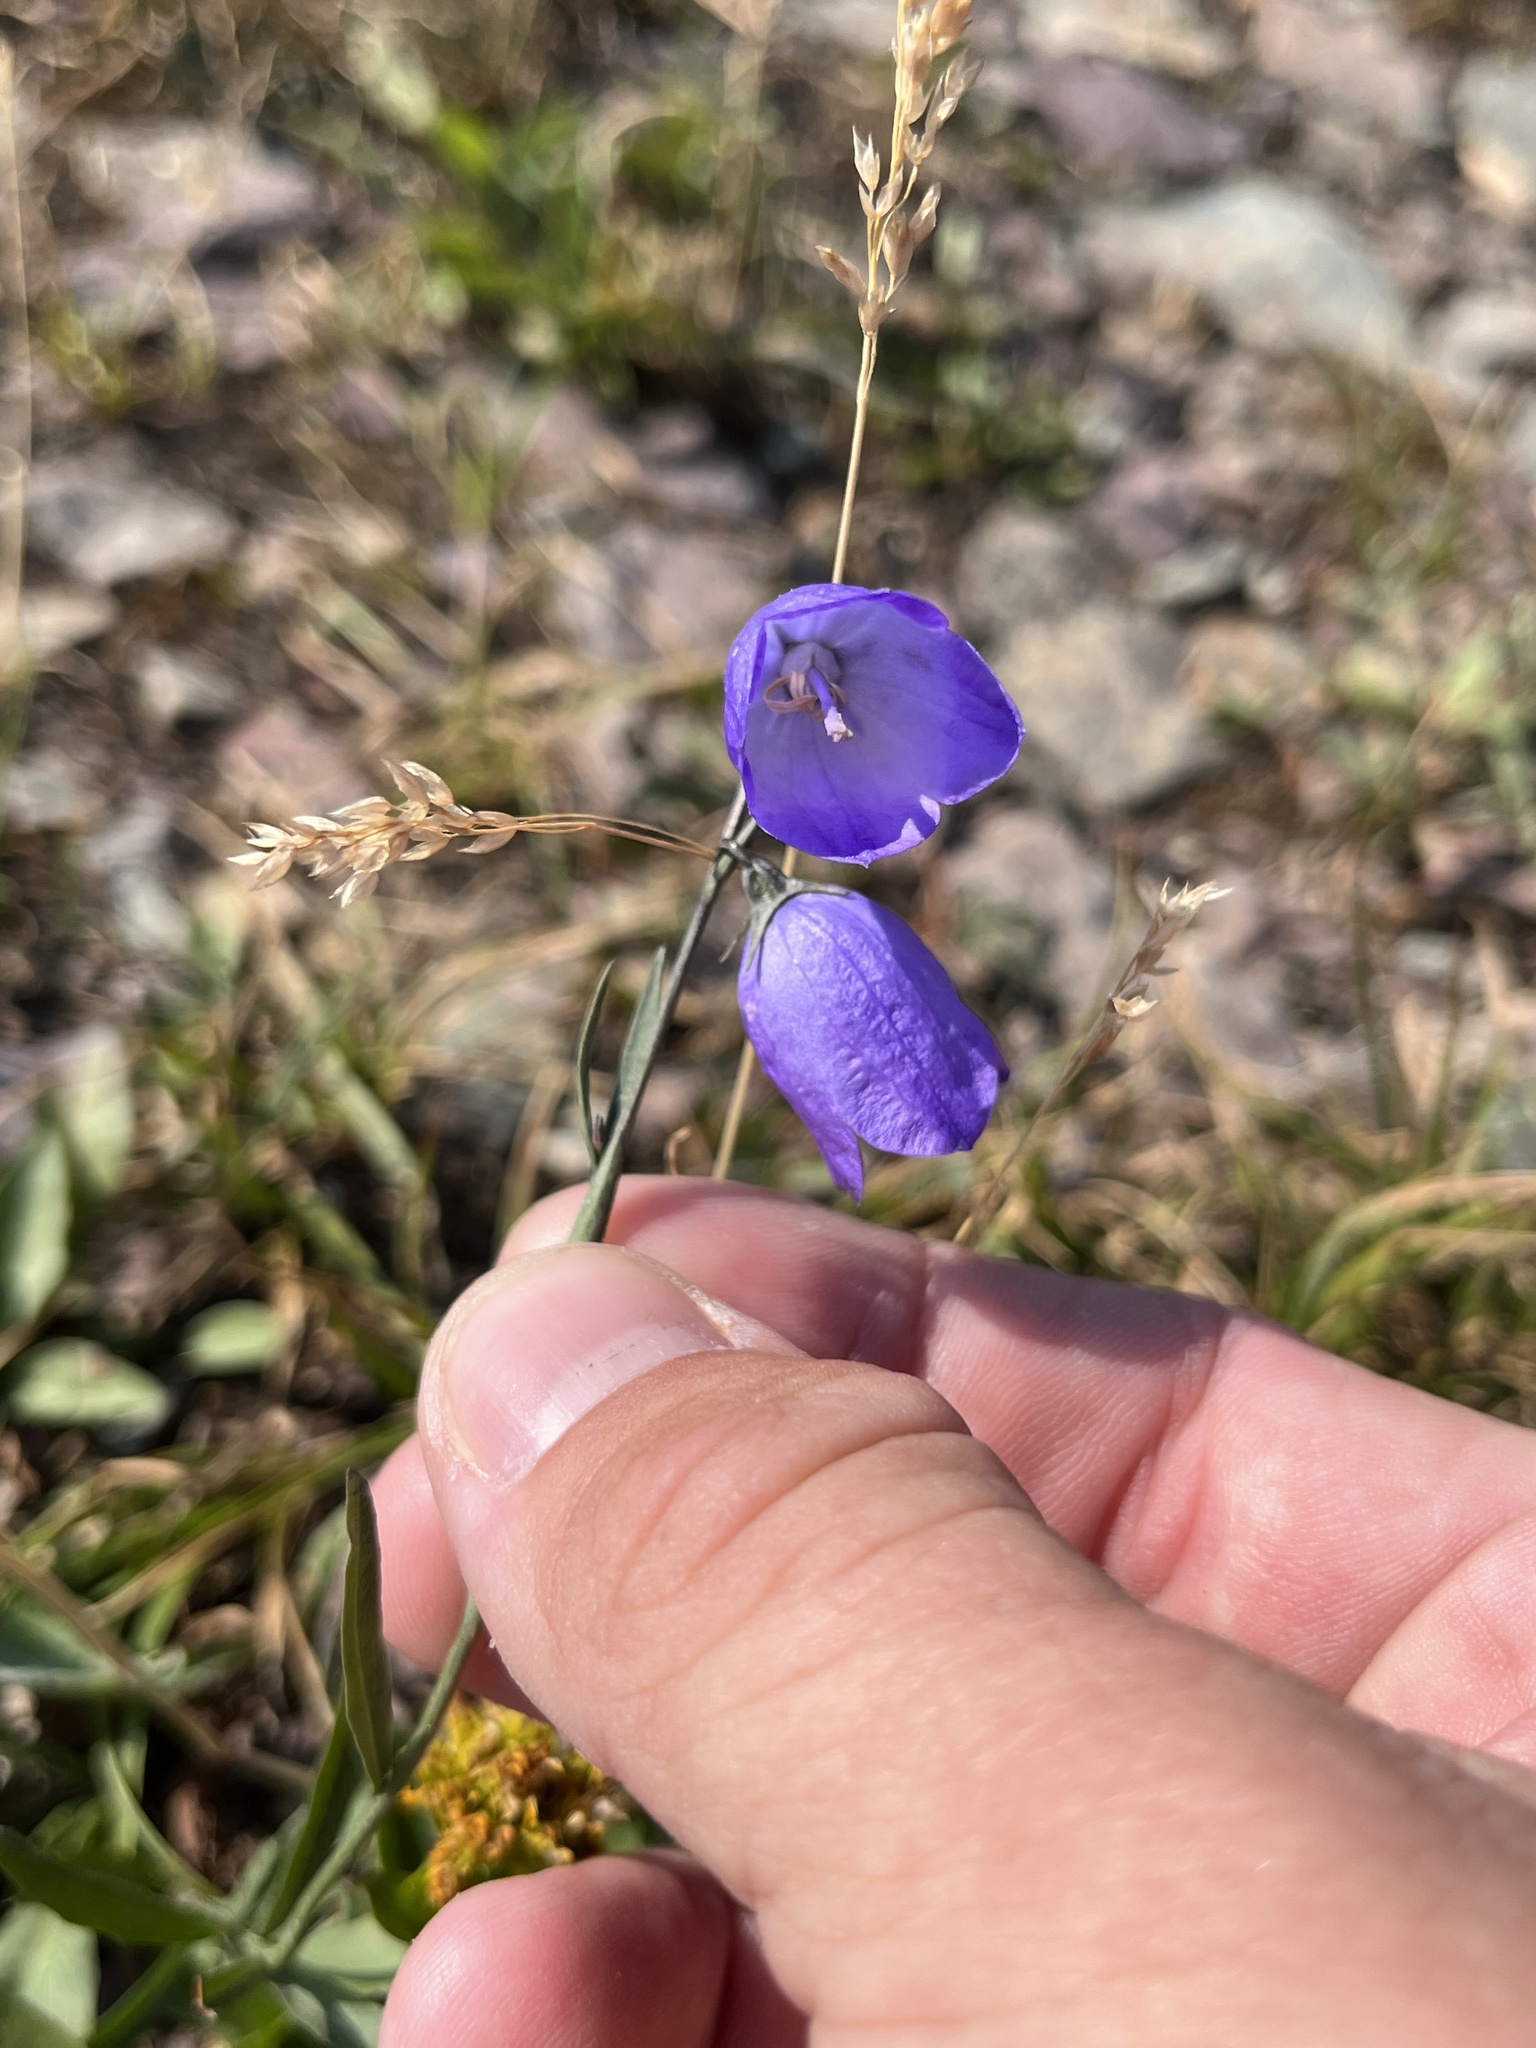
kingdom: Plantae
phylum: Tracheophyta
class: Magnoliopsida
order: Asterales
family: Campanulaceae
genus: Campanula
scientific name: Campanula alaskana
